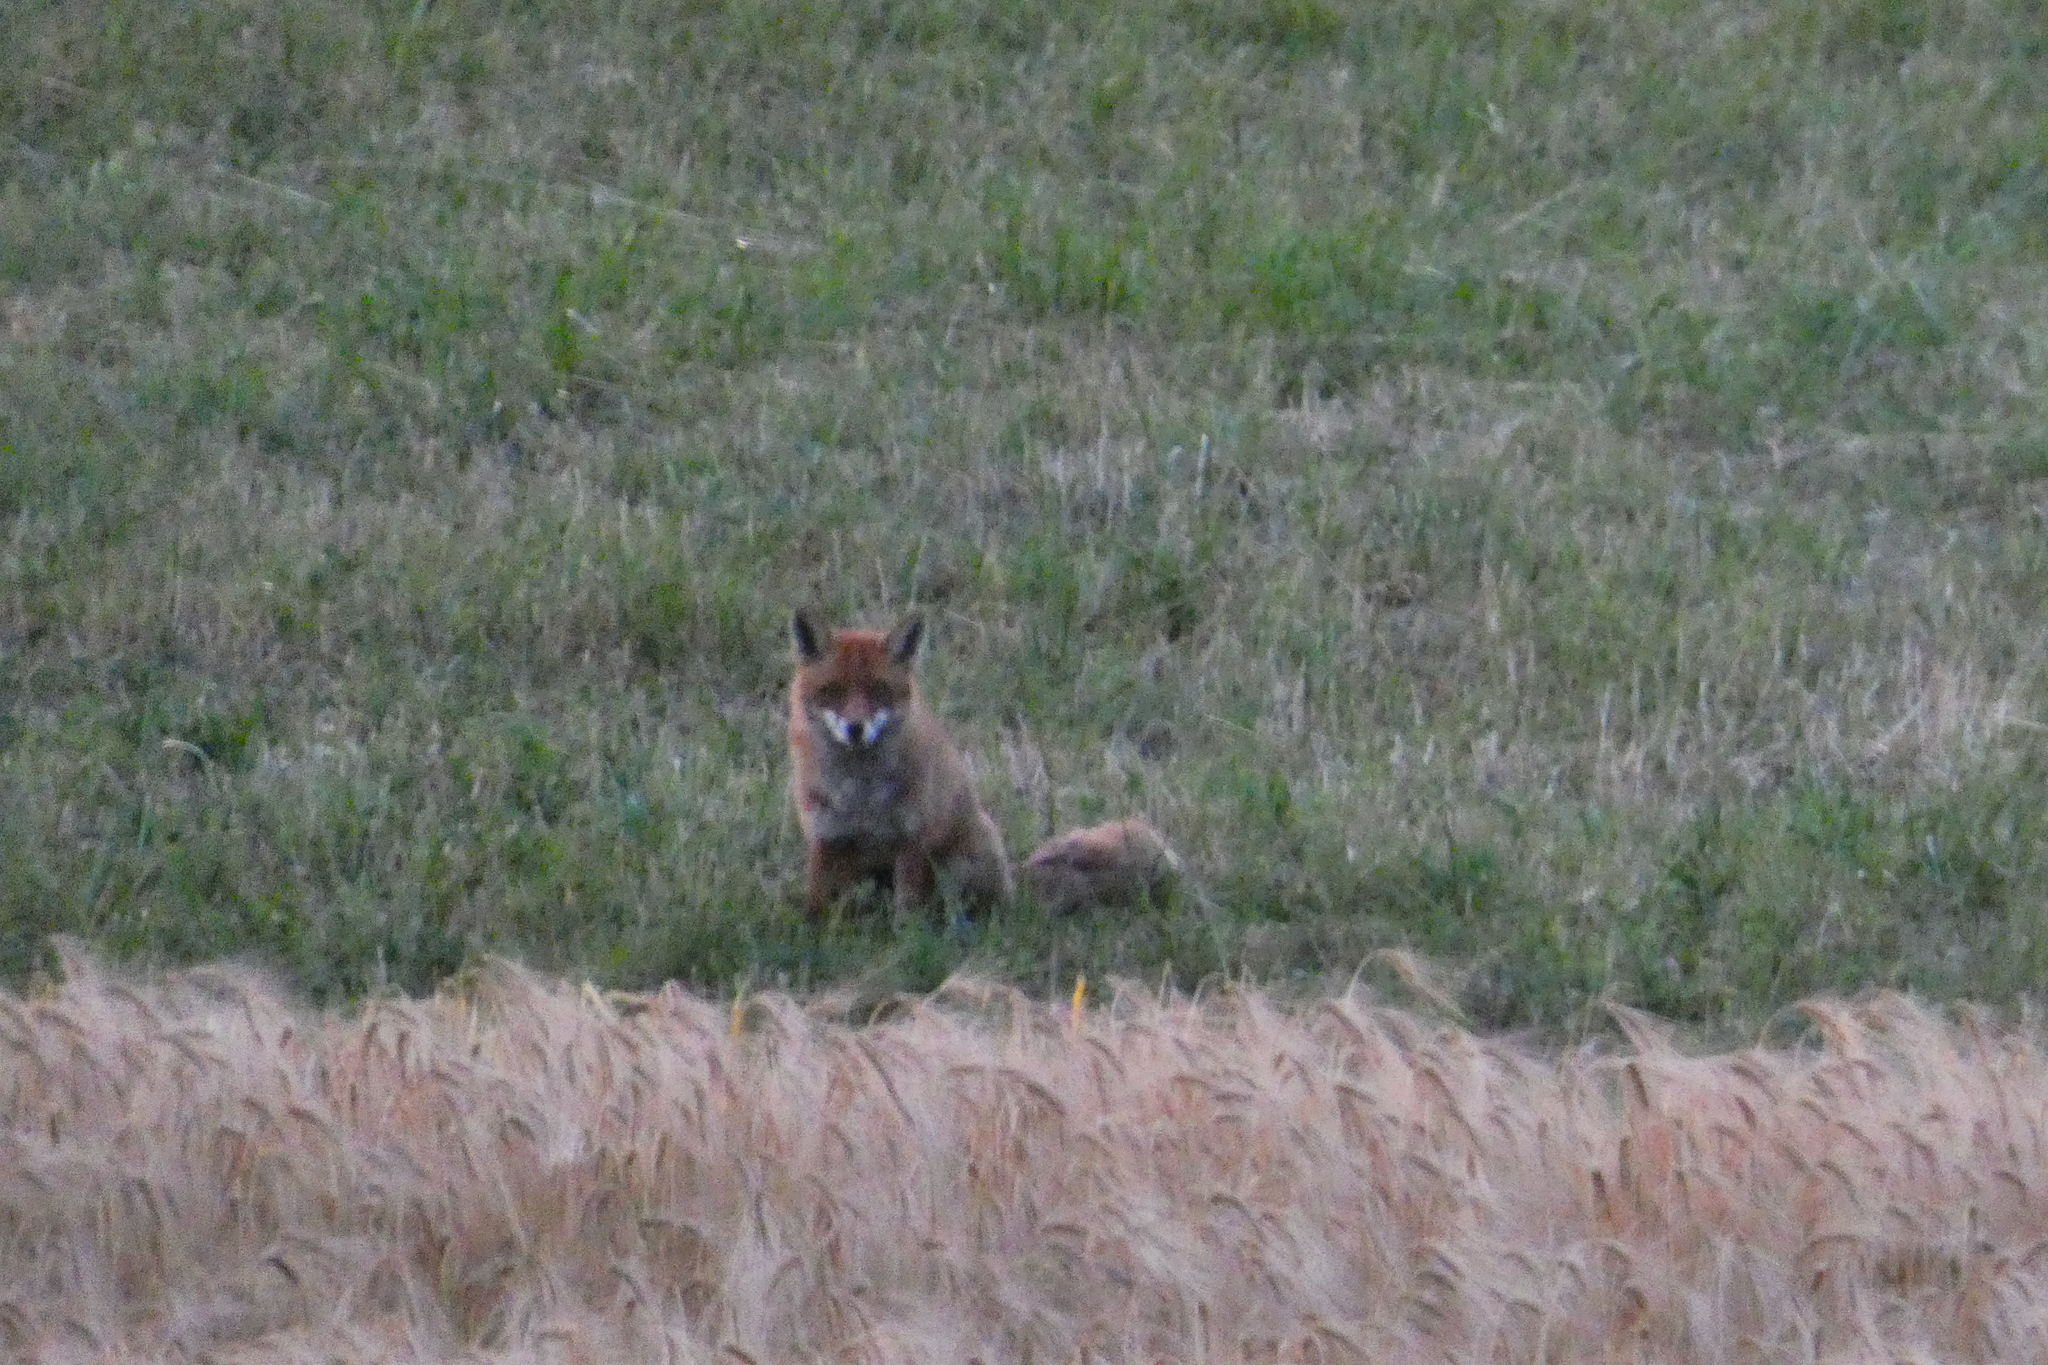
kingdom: Animalia
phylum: Chordata
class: Mammalia
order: Carnivora
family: Canidae
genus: Vulpes
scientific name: Vulpes vulpes
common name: Red fox
